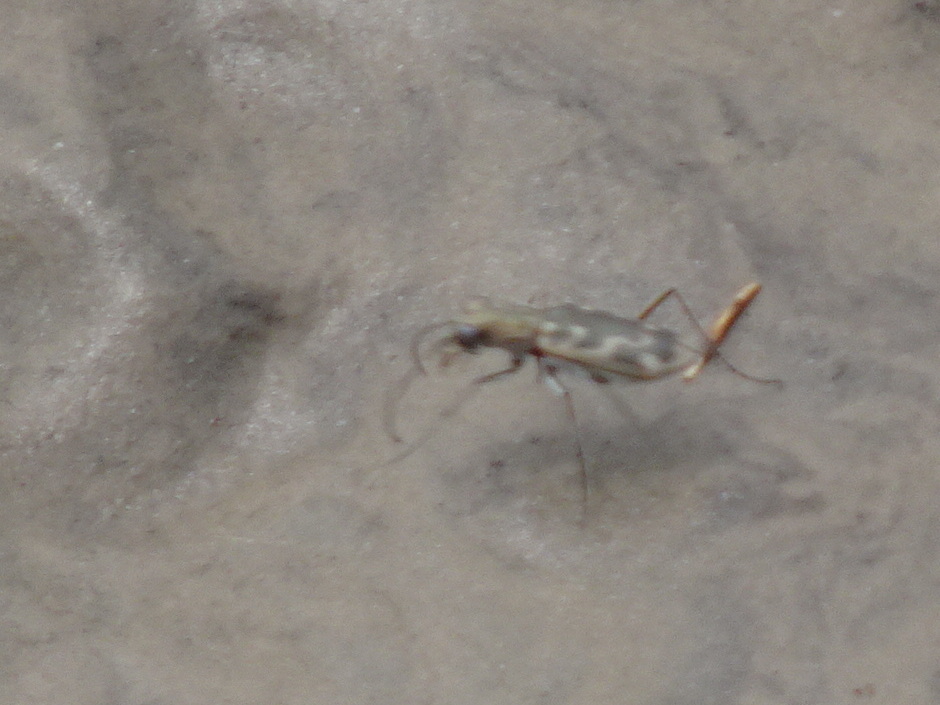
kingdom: Animalia
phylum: Arthropoda
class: Insecta
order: Coleoptera
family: Carabidae
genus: Ellipsoptera
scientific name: Ellipsoptera cuprascens
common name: Coppery tiger beetle
